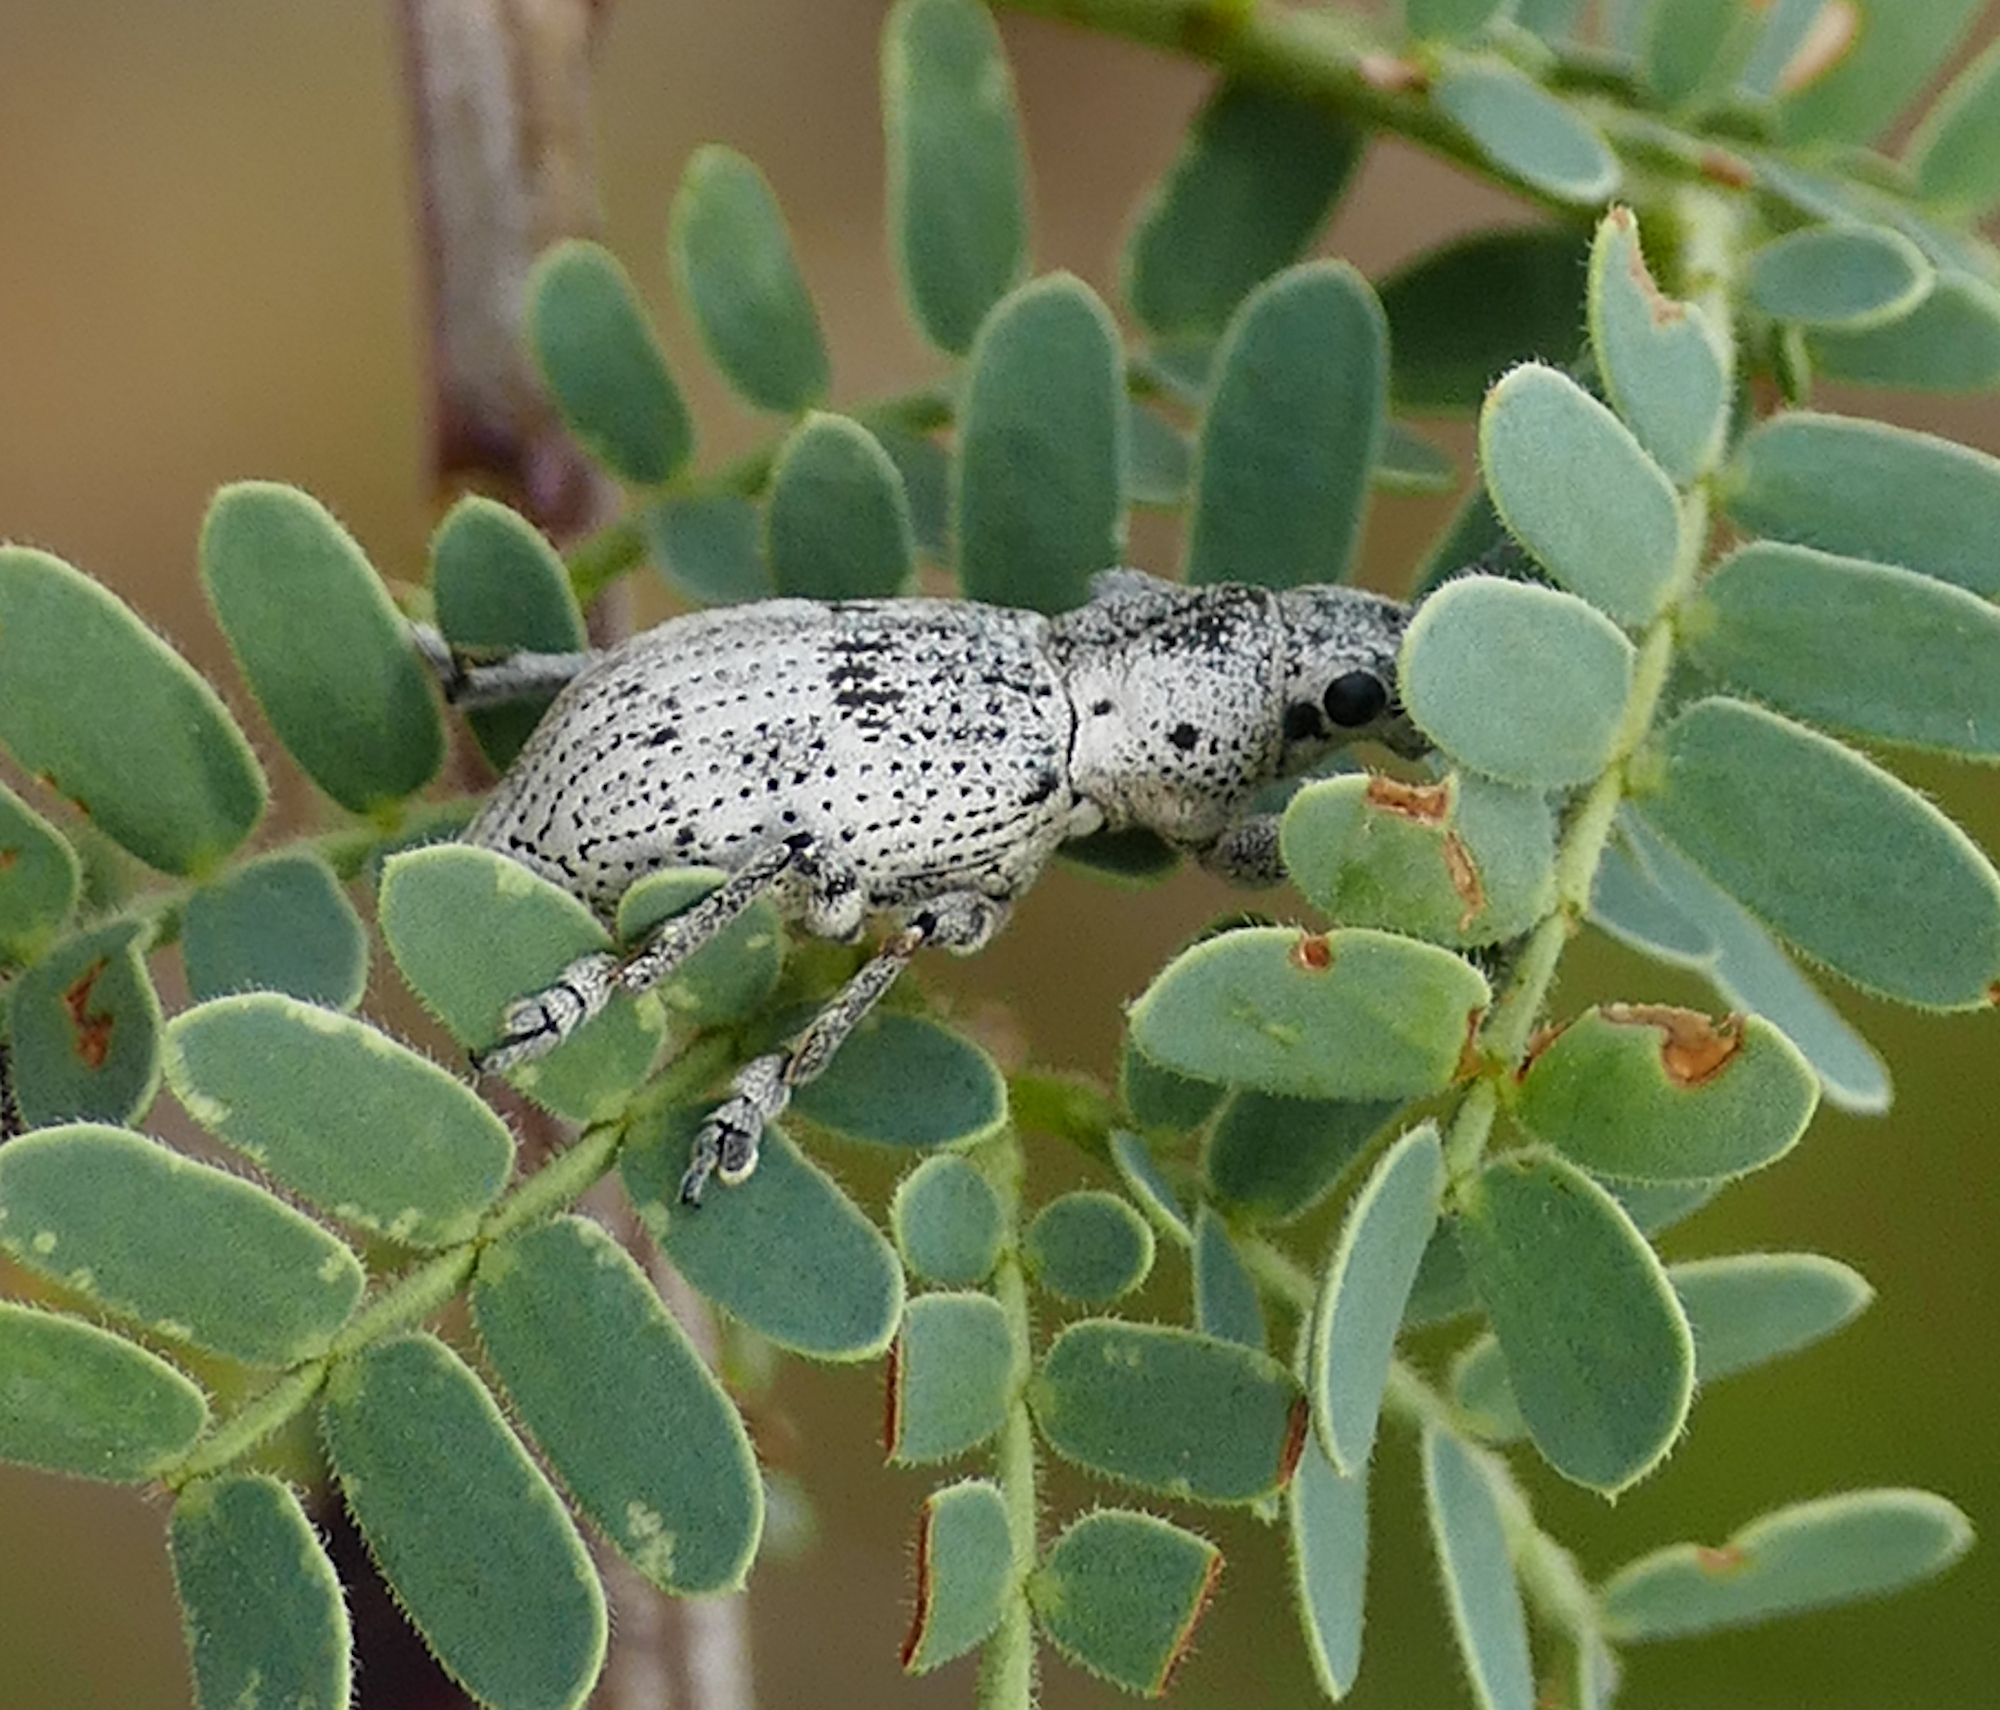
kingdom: Animalia
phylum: Arthropoda
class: Insecta
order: Coleoptera
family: Curculionidae
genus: Ericydeus
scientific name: Ericydeus lautus
